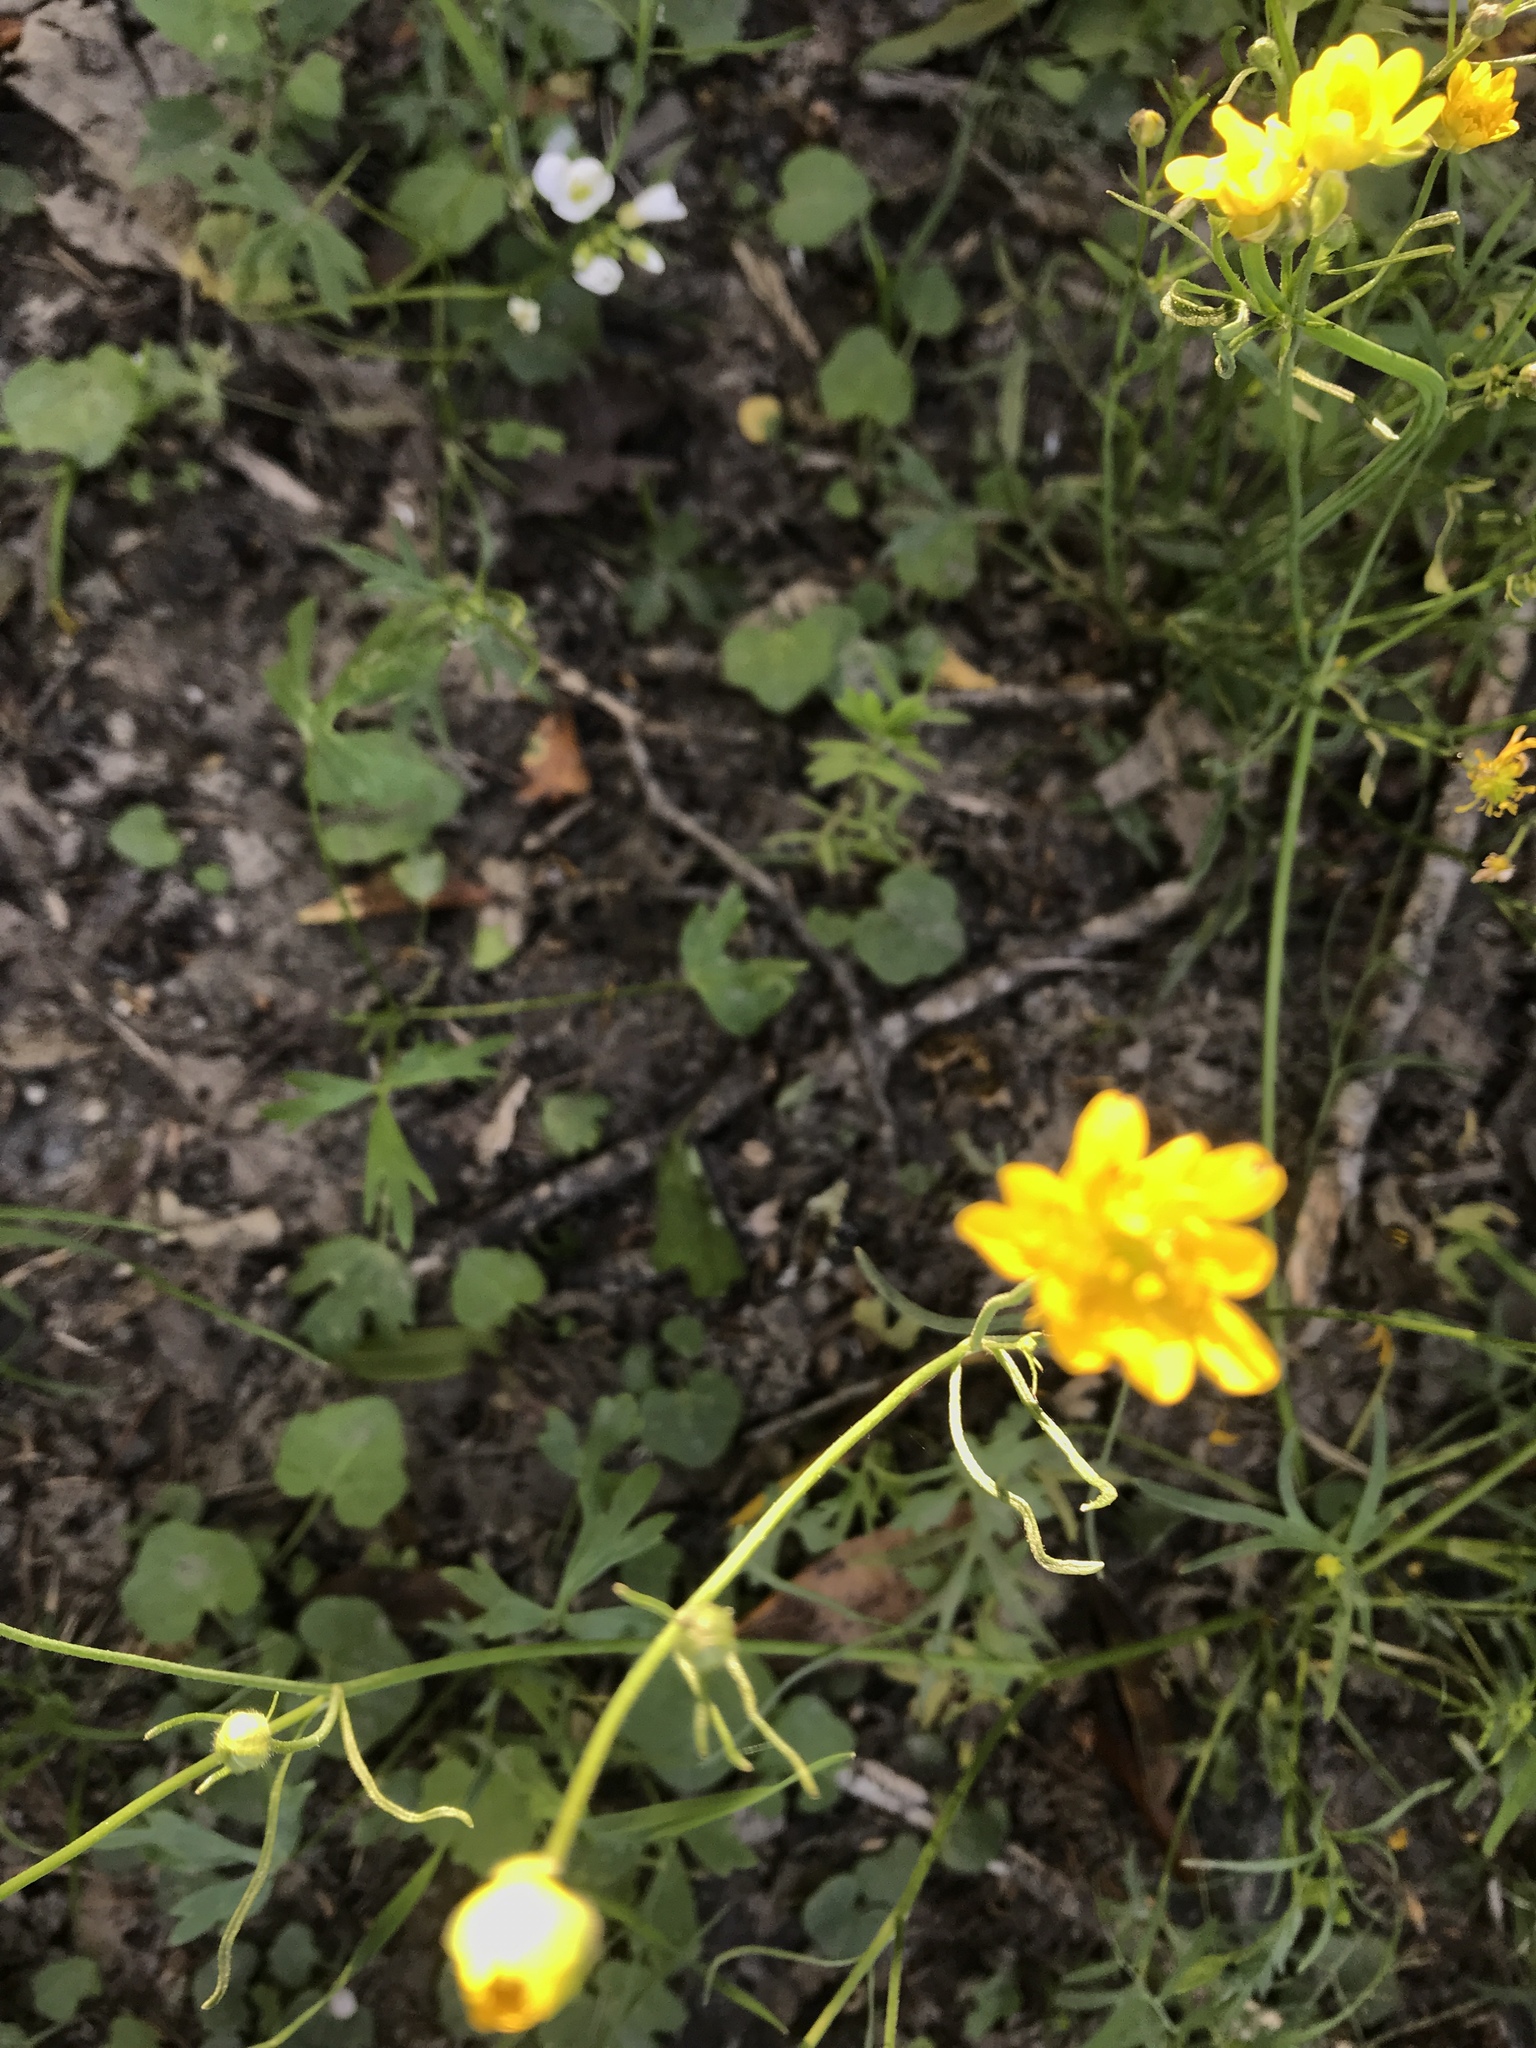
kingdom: Plantae
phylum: Tracheophyta
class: Magnoliopsida
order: Ranunculales
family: Ranunculaceae
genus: Ranunculus
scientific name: Ranunculus californicus
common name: California buttercup
